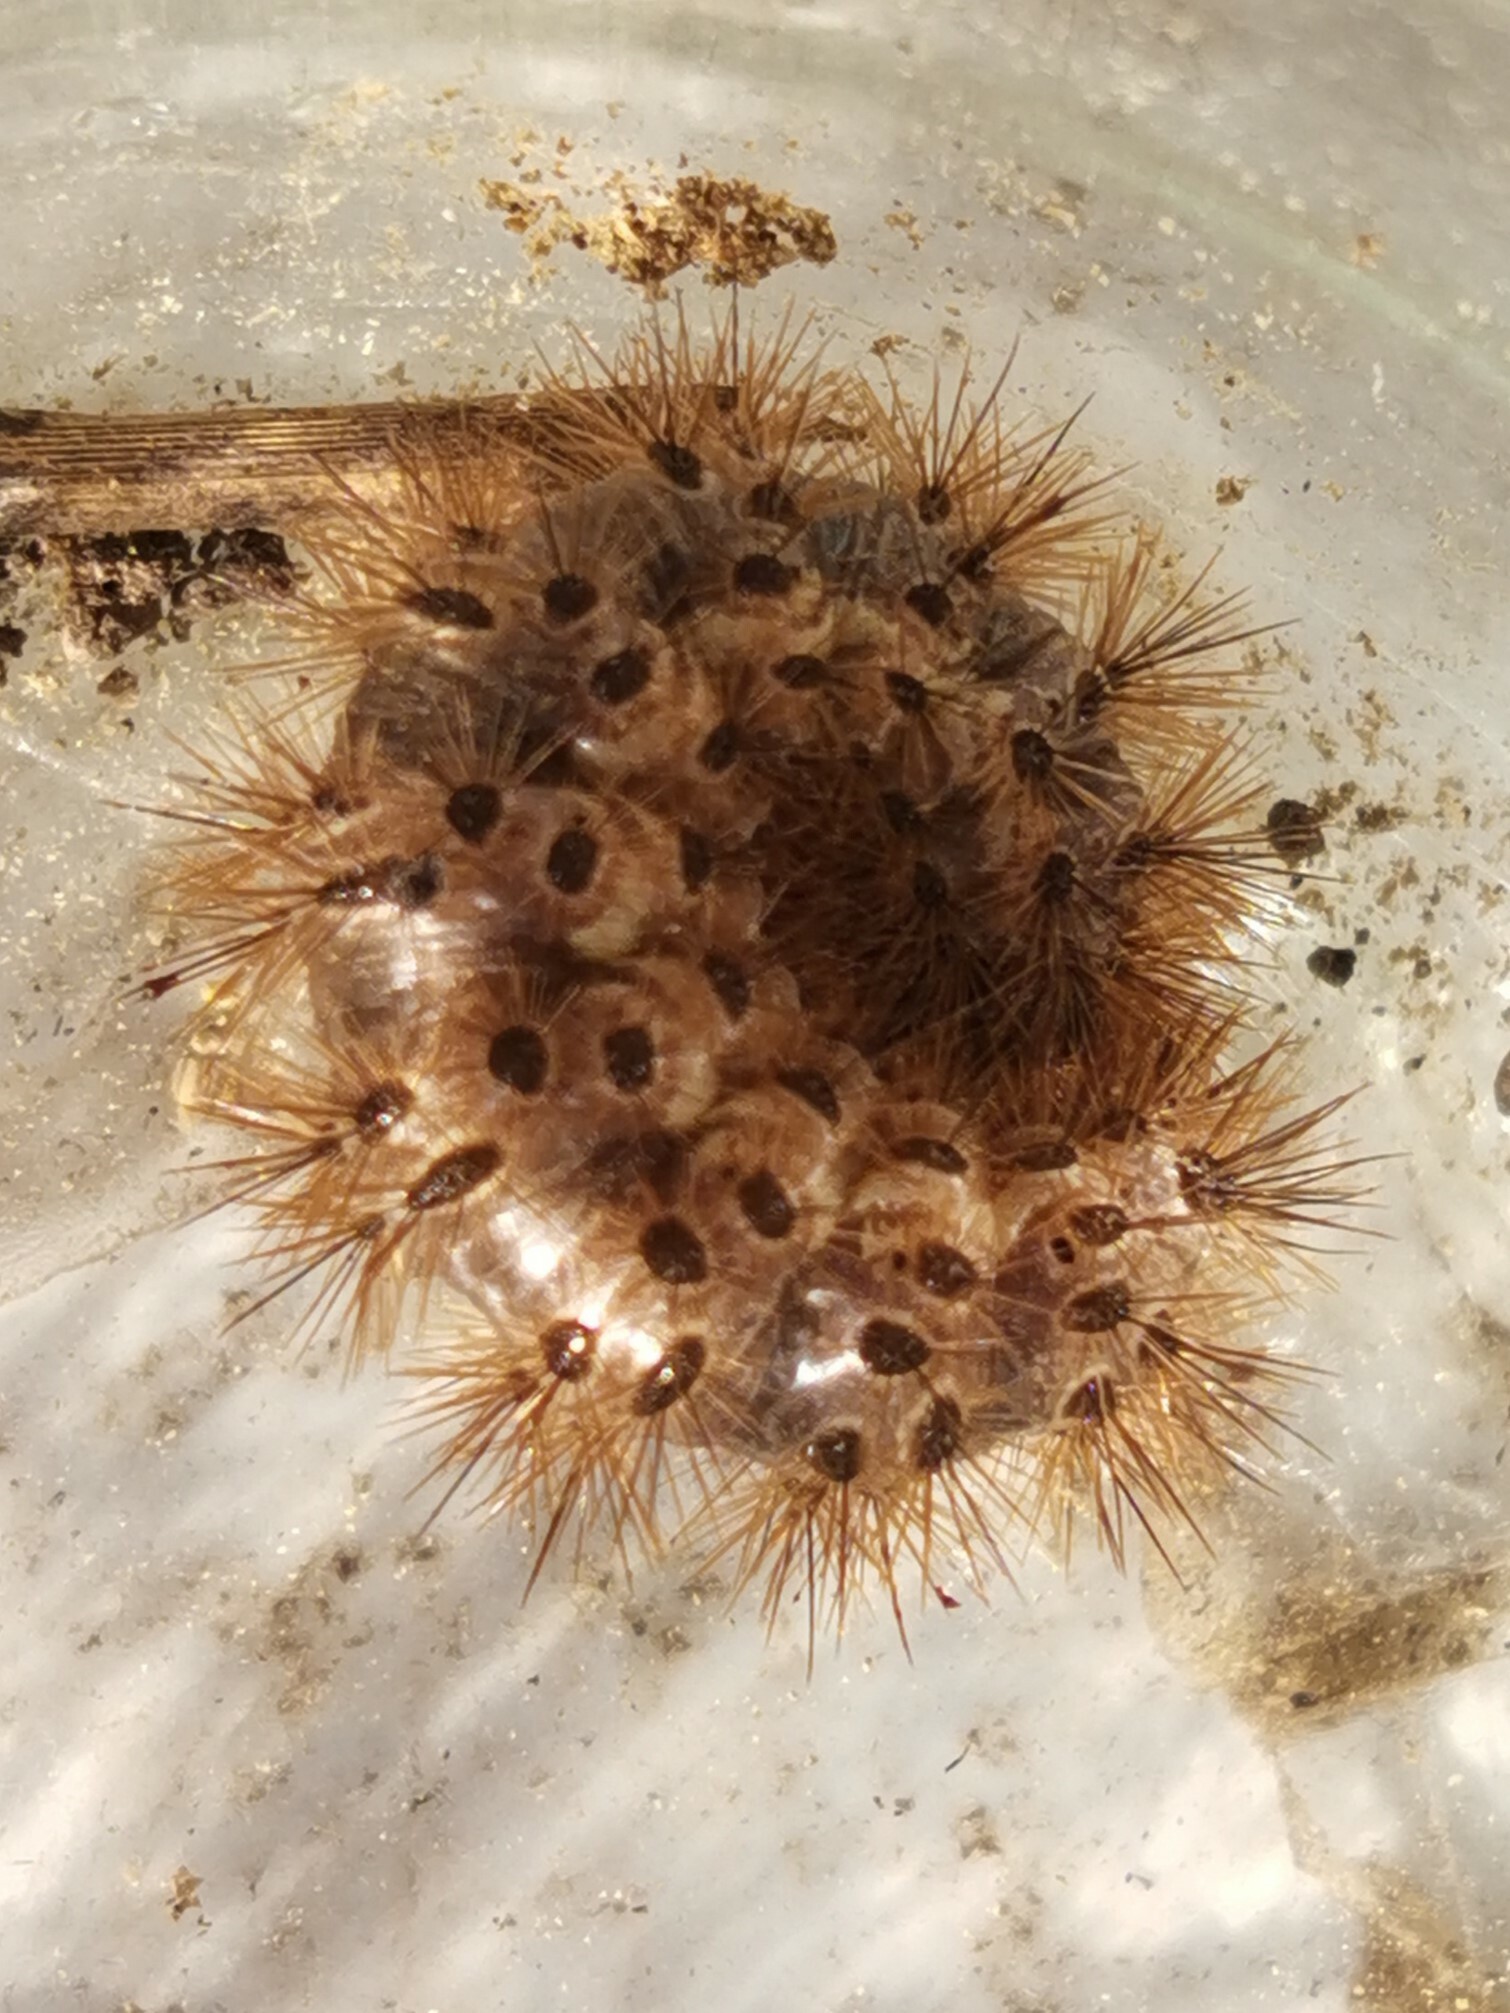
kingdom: Animalia
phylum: Arthropoda
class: Insecta
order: Lepidoptera
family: Erebidae
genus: Cymbalophora
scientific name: Cymbalophora pudica
